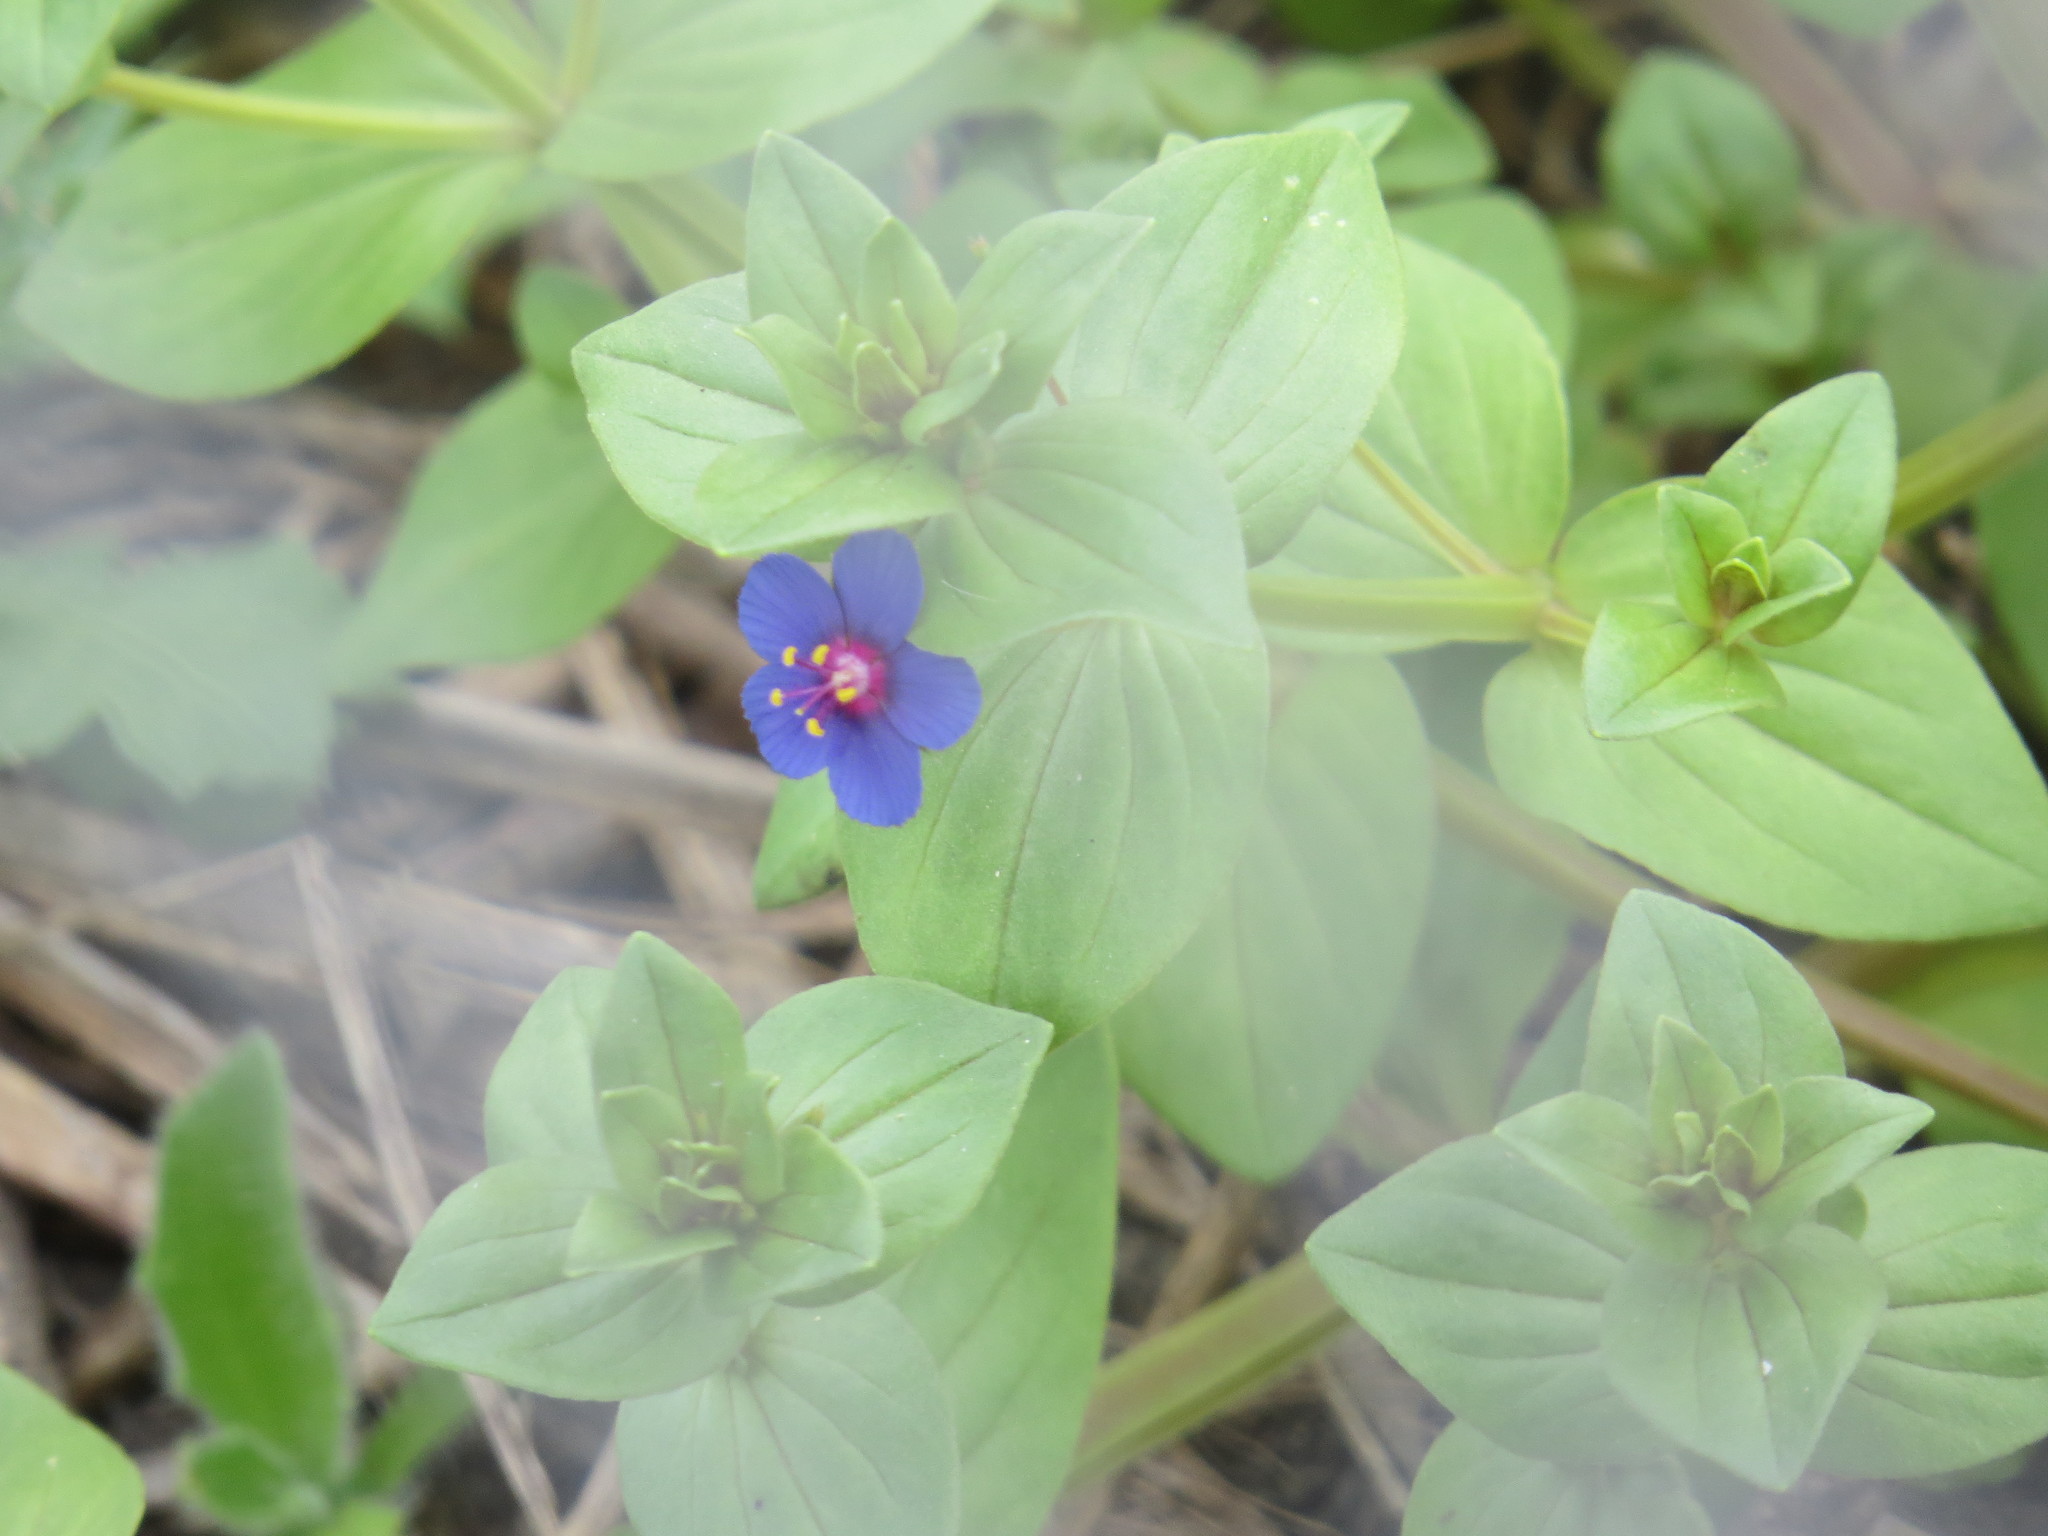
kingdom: Plantae
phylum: Tracheophyta
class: Magnoliopsida
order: Ericales
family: Primulaceae
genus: Lysimachia
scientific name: Lysimachia arvensis
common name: Scarlet pimpernel
